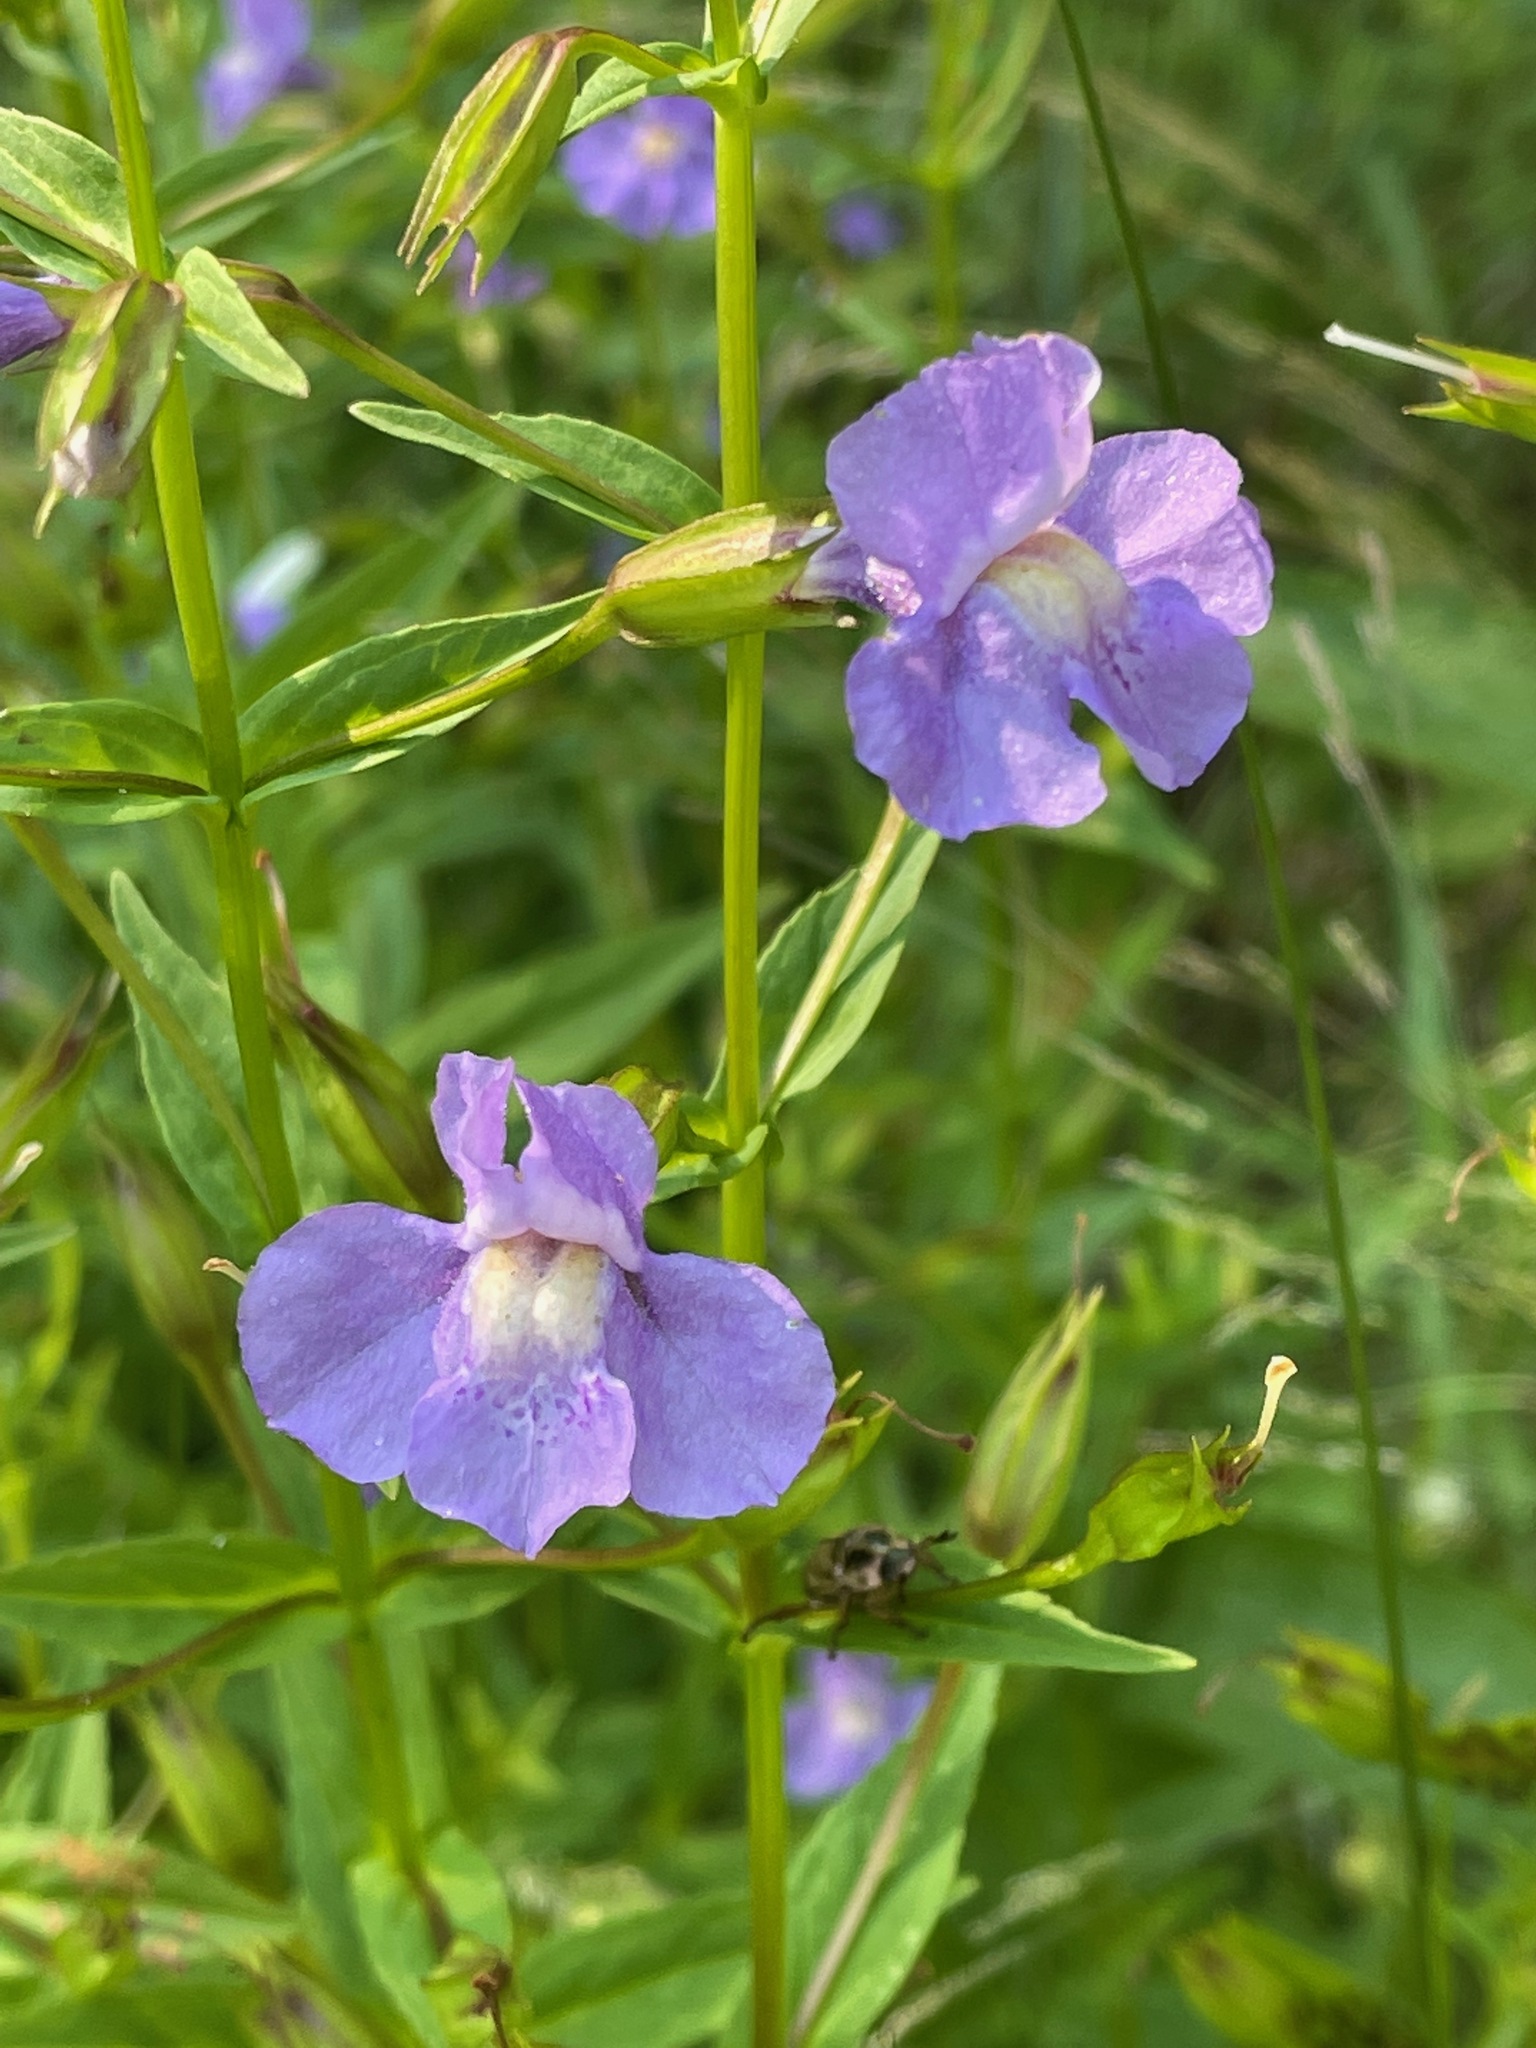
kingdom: Plantae
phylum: Tracheophyta
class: Magnoliopsida
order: Lamiales
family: Phrymaceae
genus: Mimulus
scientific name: Mimulus ringens
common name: Allegheny monkeyflower
